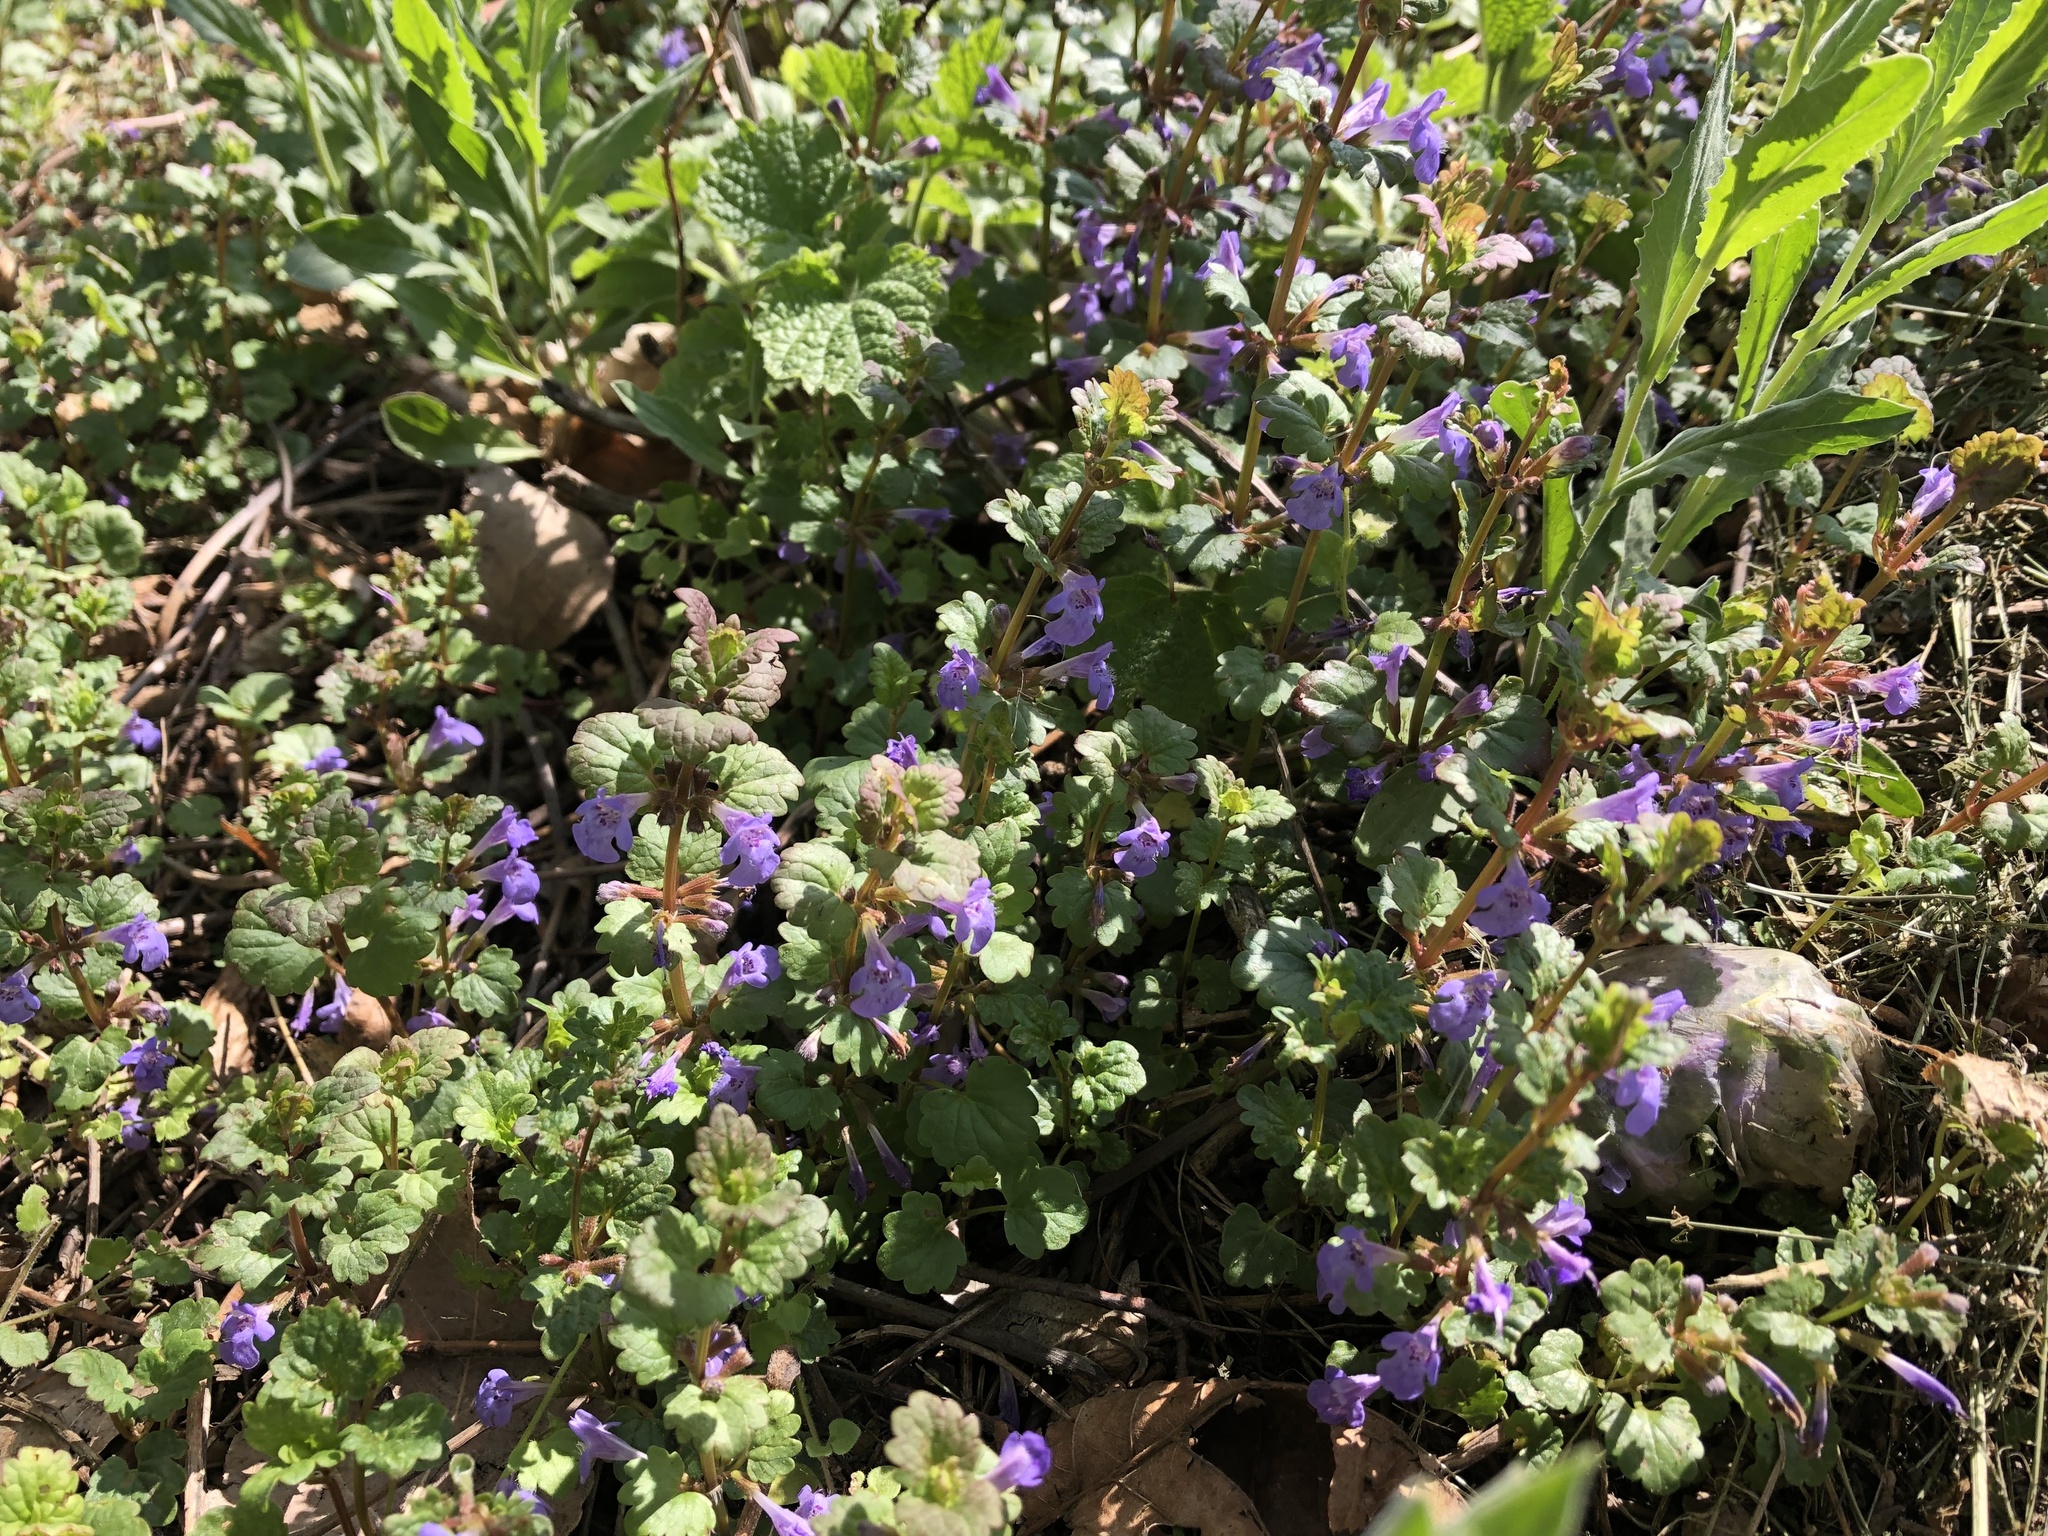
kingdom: Plantae
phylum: Tracheophyta
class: Magnoliopsida
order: Lamiales
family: Lamiaceae
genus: Glechoma
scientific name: Glechoma hederacea
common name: Ground ivy
